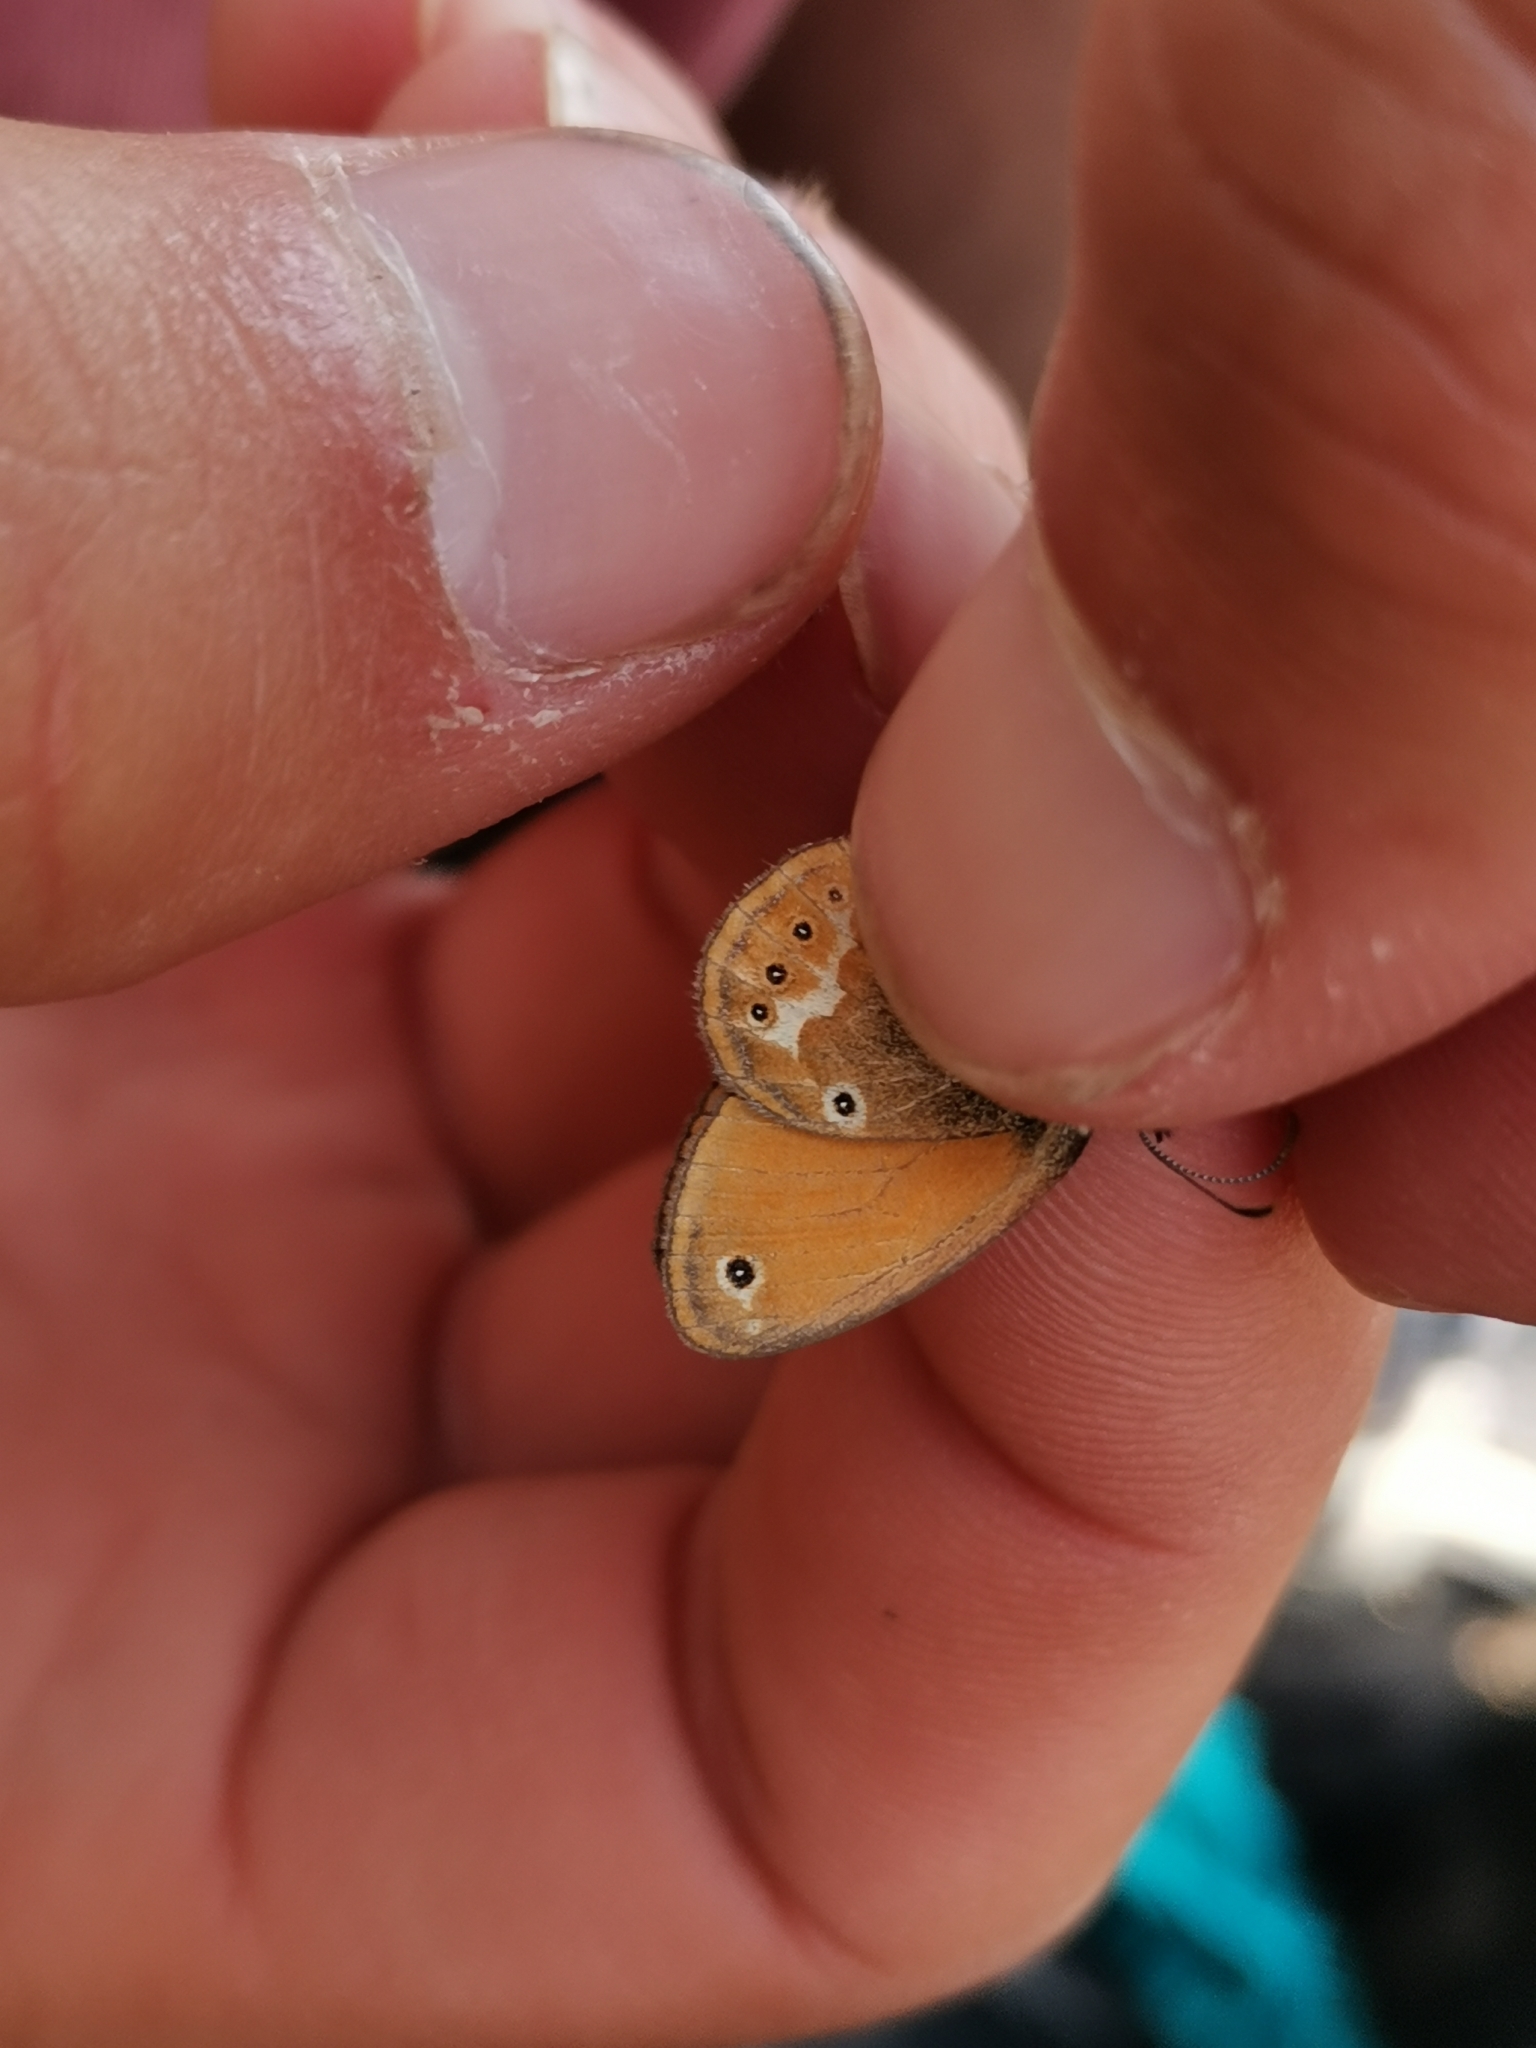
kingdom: Animalia
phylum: Arthropoda
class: Insecta
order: Lepidoptera
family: Nymphalidae
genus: Coenonympha
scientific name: Coenonympha corinna
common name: Corsican heath
